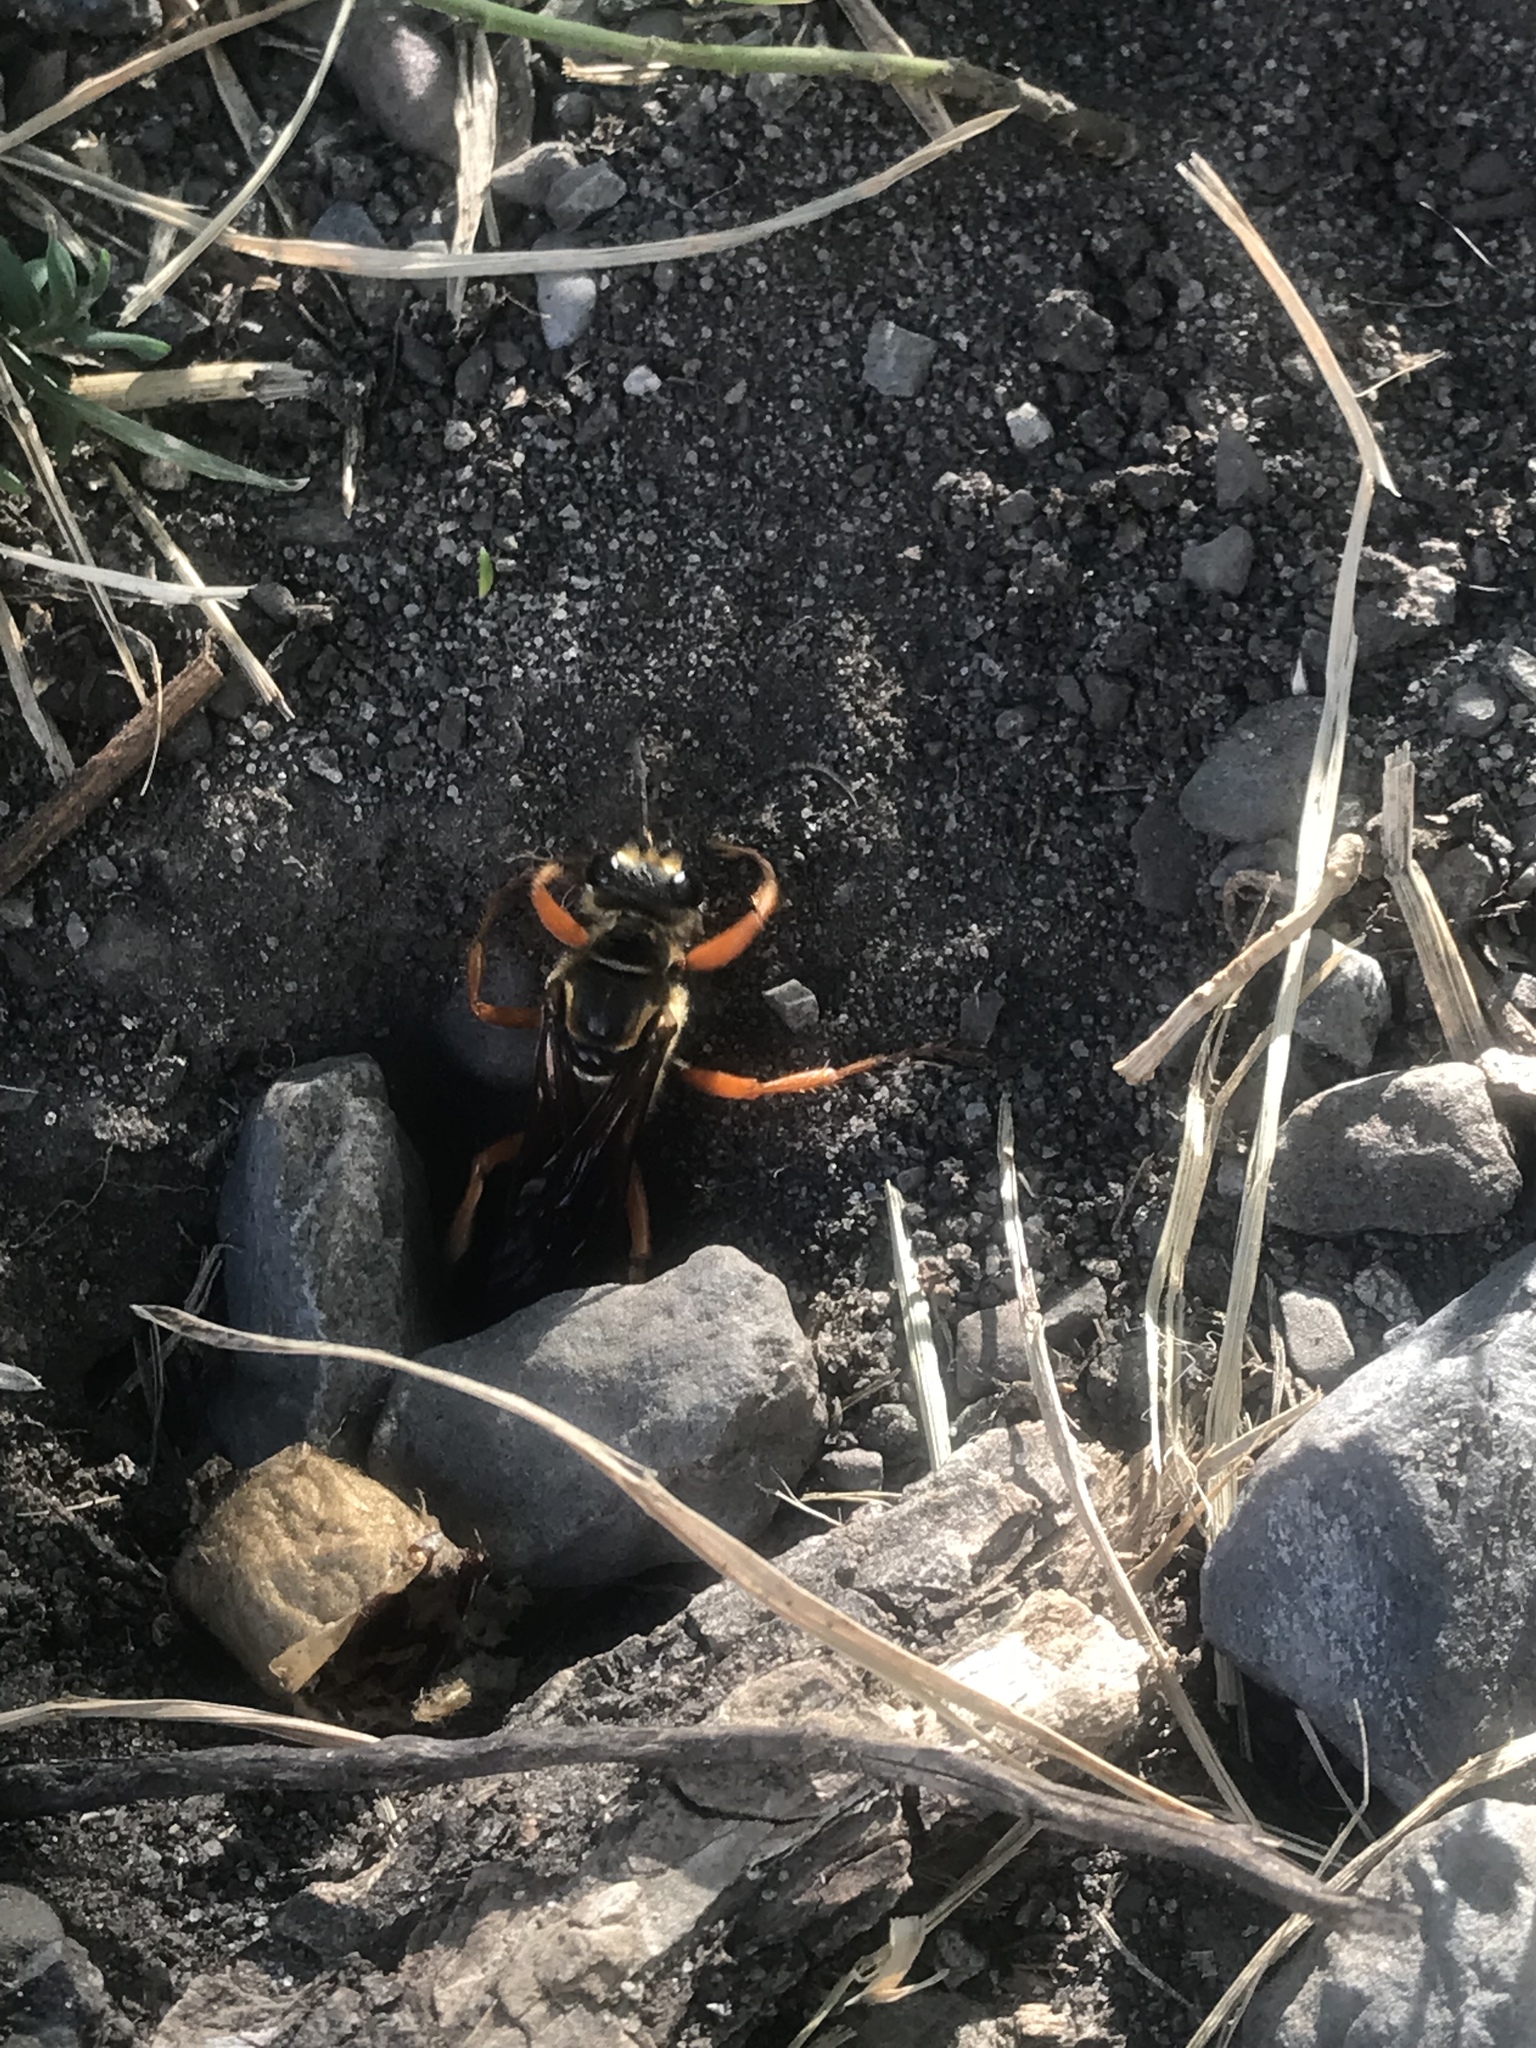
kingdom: Animalia
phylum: Arthropoda
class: Insecta
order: Hymenoptera
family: Sphecidae
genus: Sphex
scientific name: Sphex ichneumoneus
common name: Great golden digger wasp
